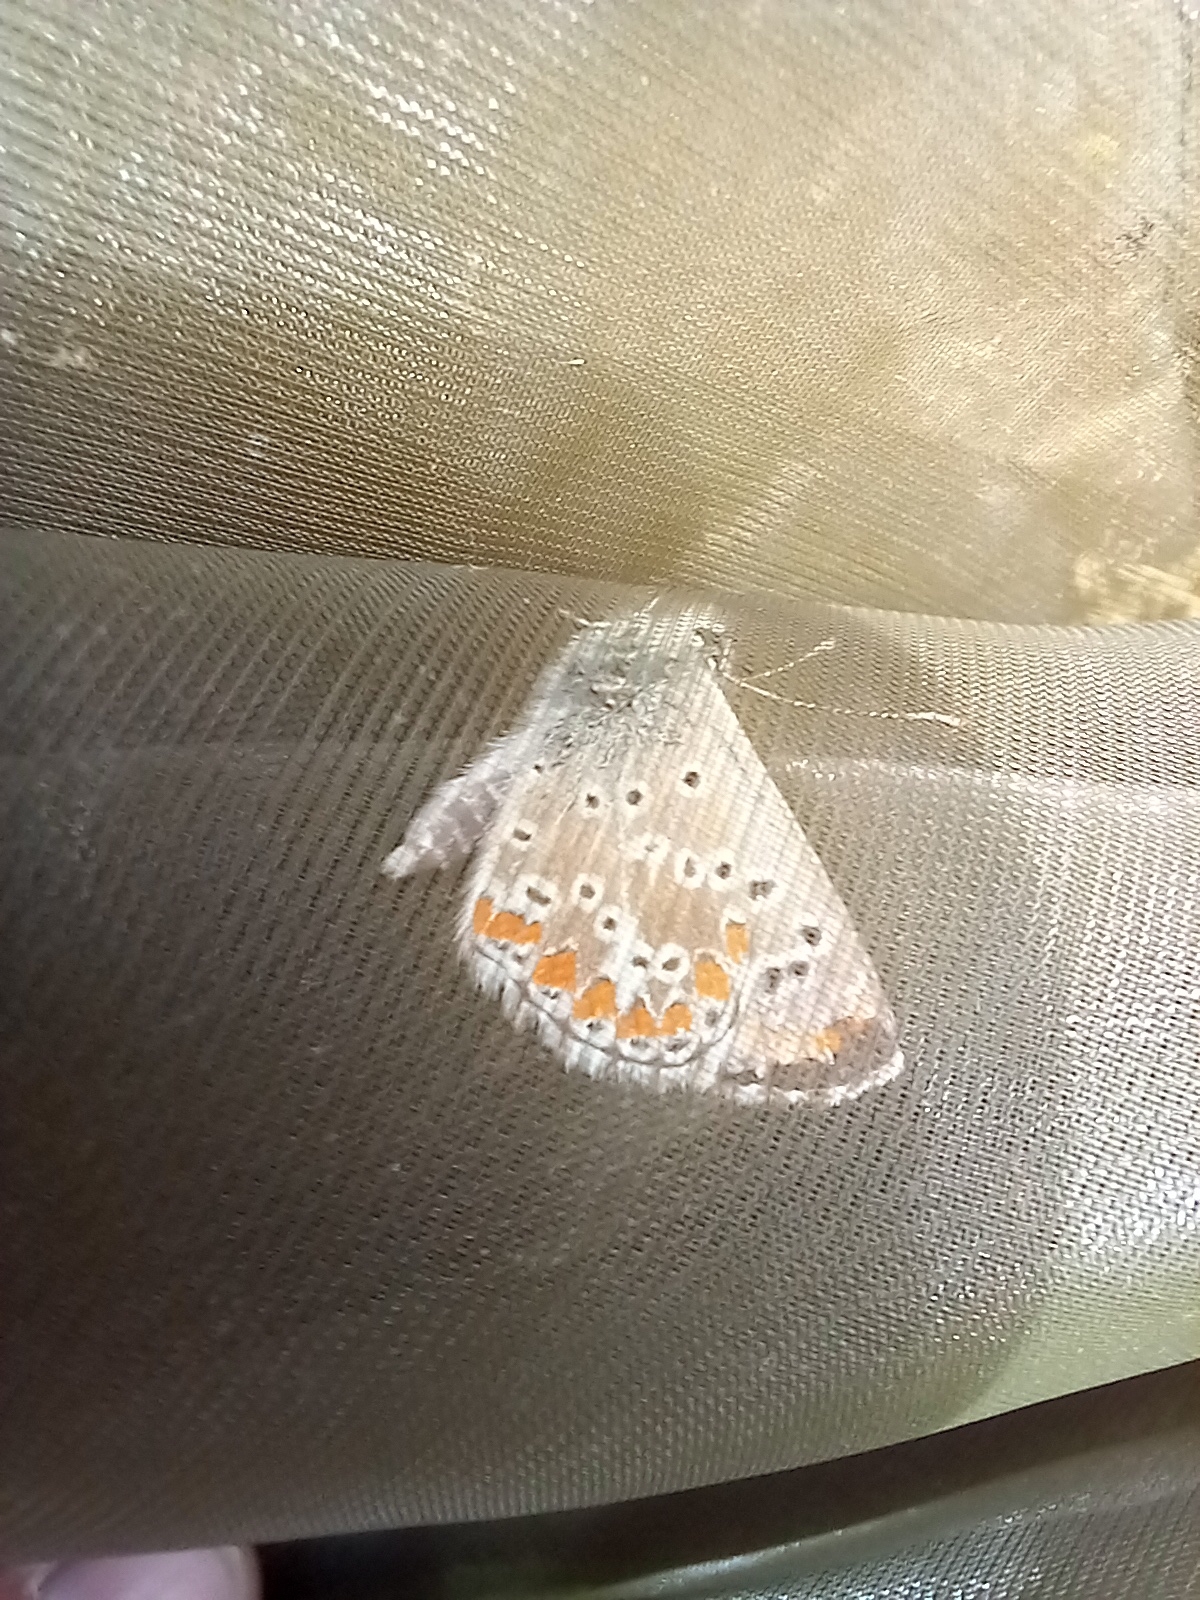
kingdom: Animalia
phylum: Arthropoda
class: Insecta
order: Lepidoptera
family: Lycaenidae
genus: Aricia
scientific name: Aricia cramera
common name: Eschscholtz´s brown  argus
